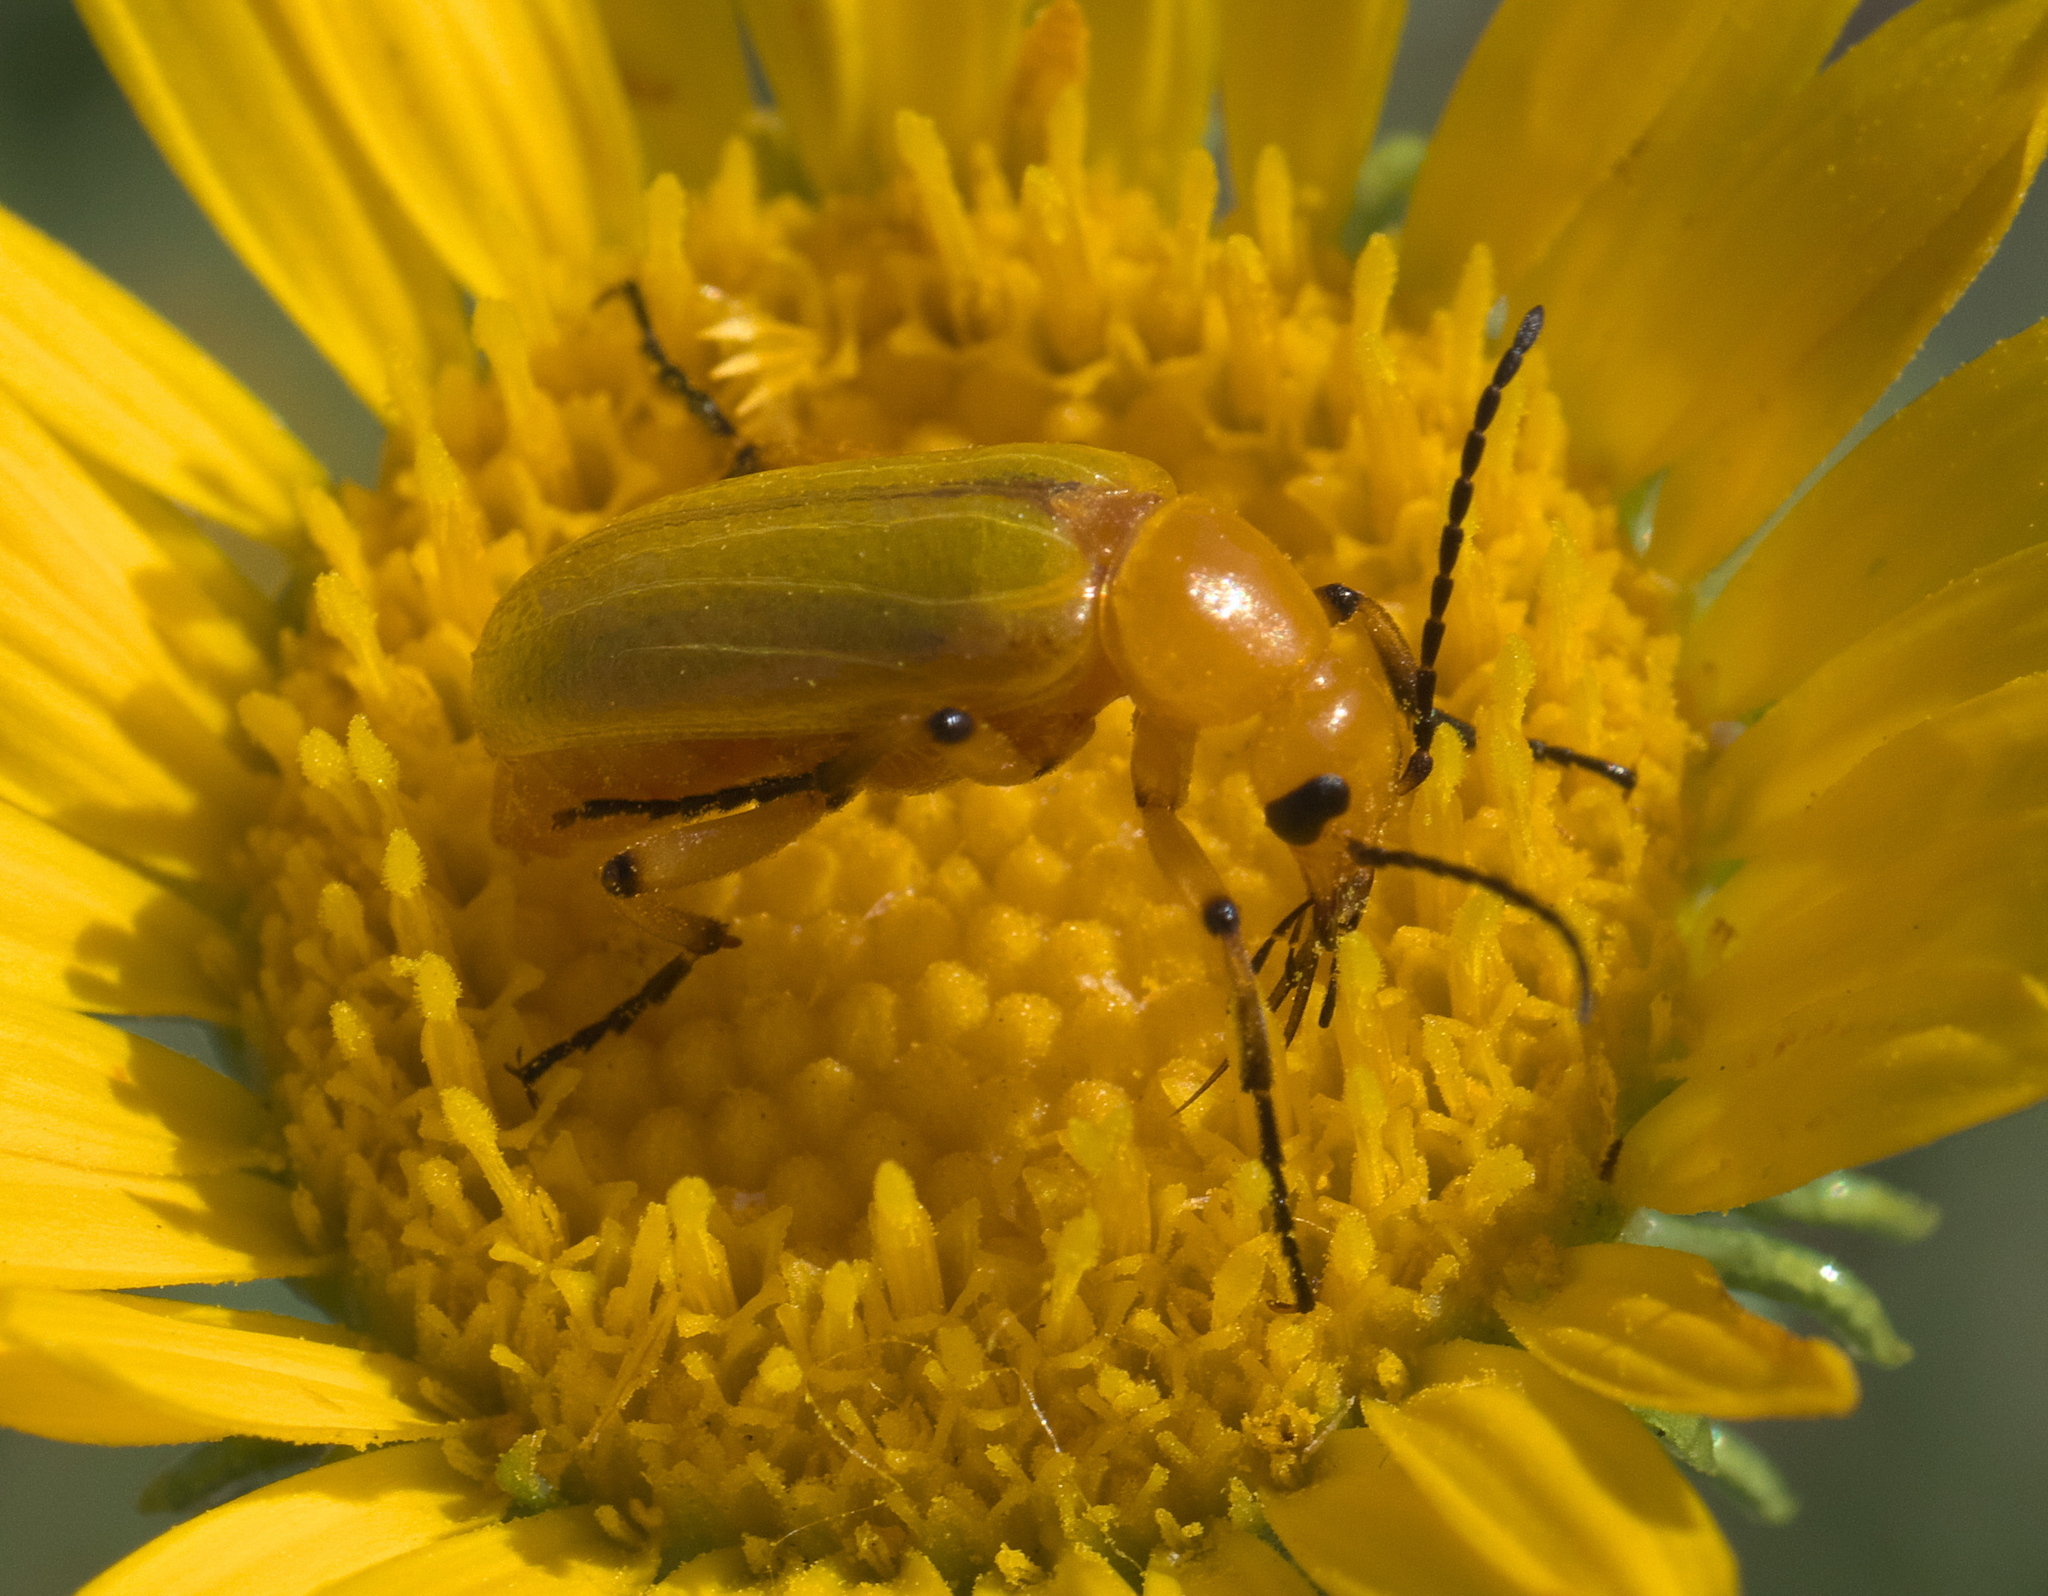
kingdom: Animalia
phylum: Arthropoda
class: Insecta
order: Coleoptera
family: Meloidae
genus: Zonitis
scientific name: Zonitis sayi
